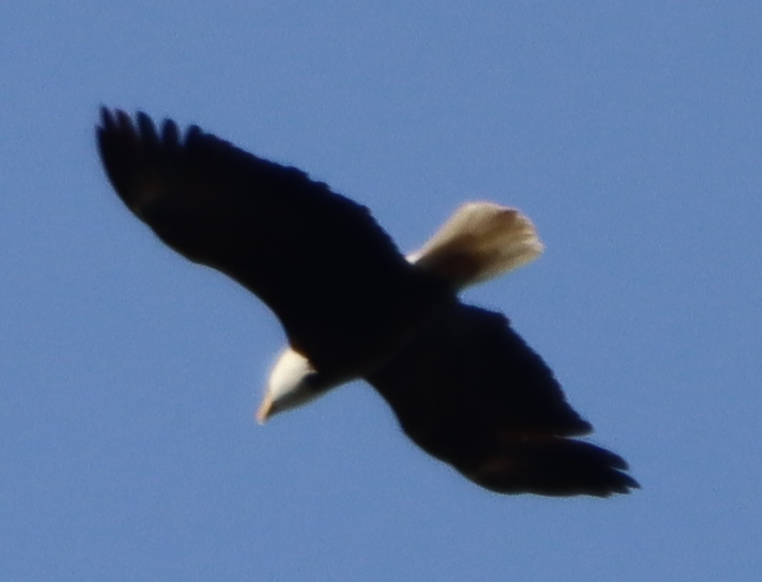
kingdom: Animalia
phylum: Chordata
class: Aves
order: Accipitriformes
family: Accipitridae
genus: Haliaeetus
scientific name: Haliaeetus leucocephalus
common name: Bald eagle
